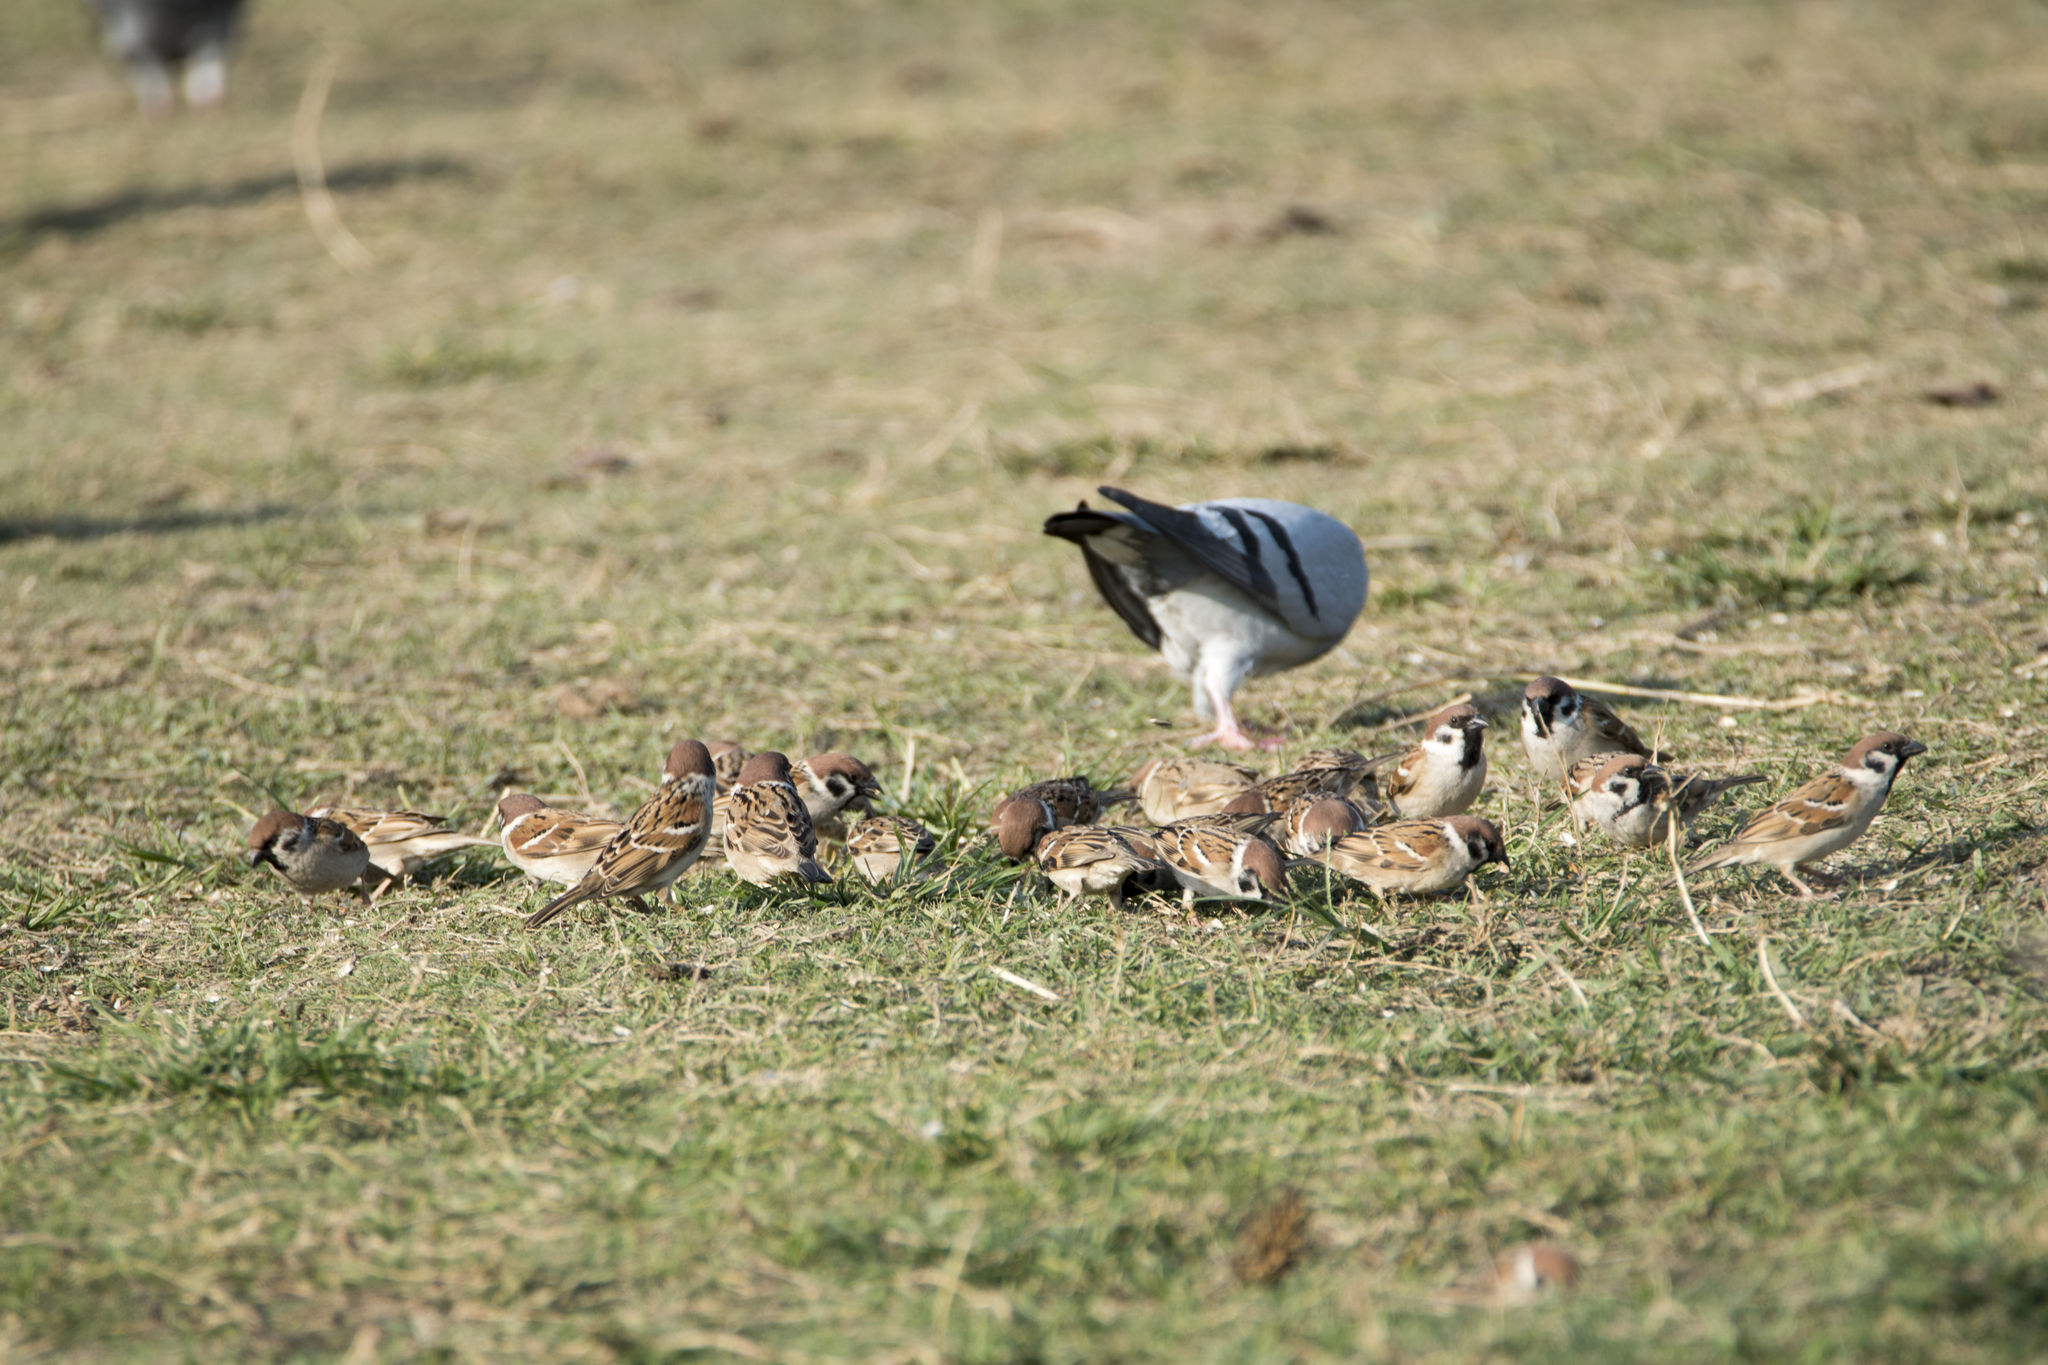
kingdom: Animalia
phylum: Chordata
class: Aves
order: Passeriformes
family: Passeridae
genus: Passer
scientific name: Passer montanus
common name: Eurasian tree sparrow
